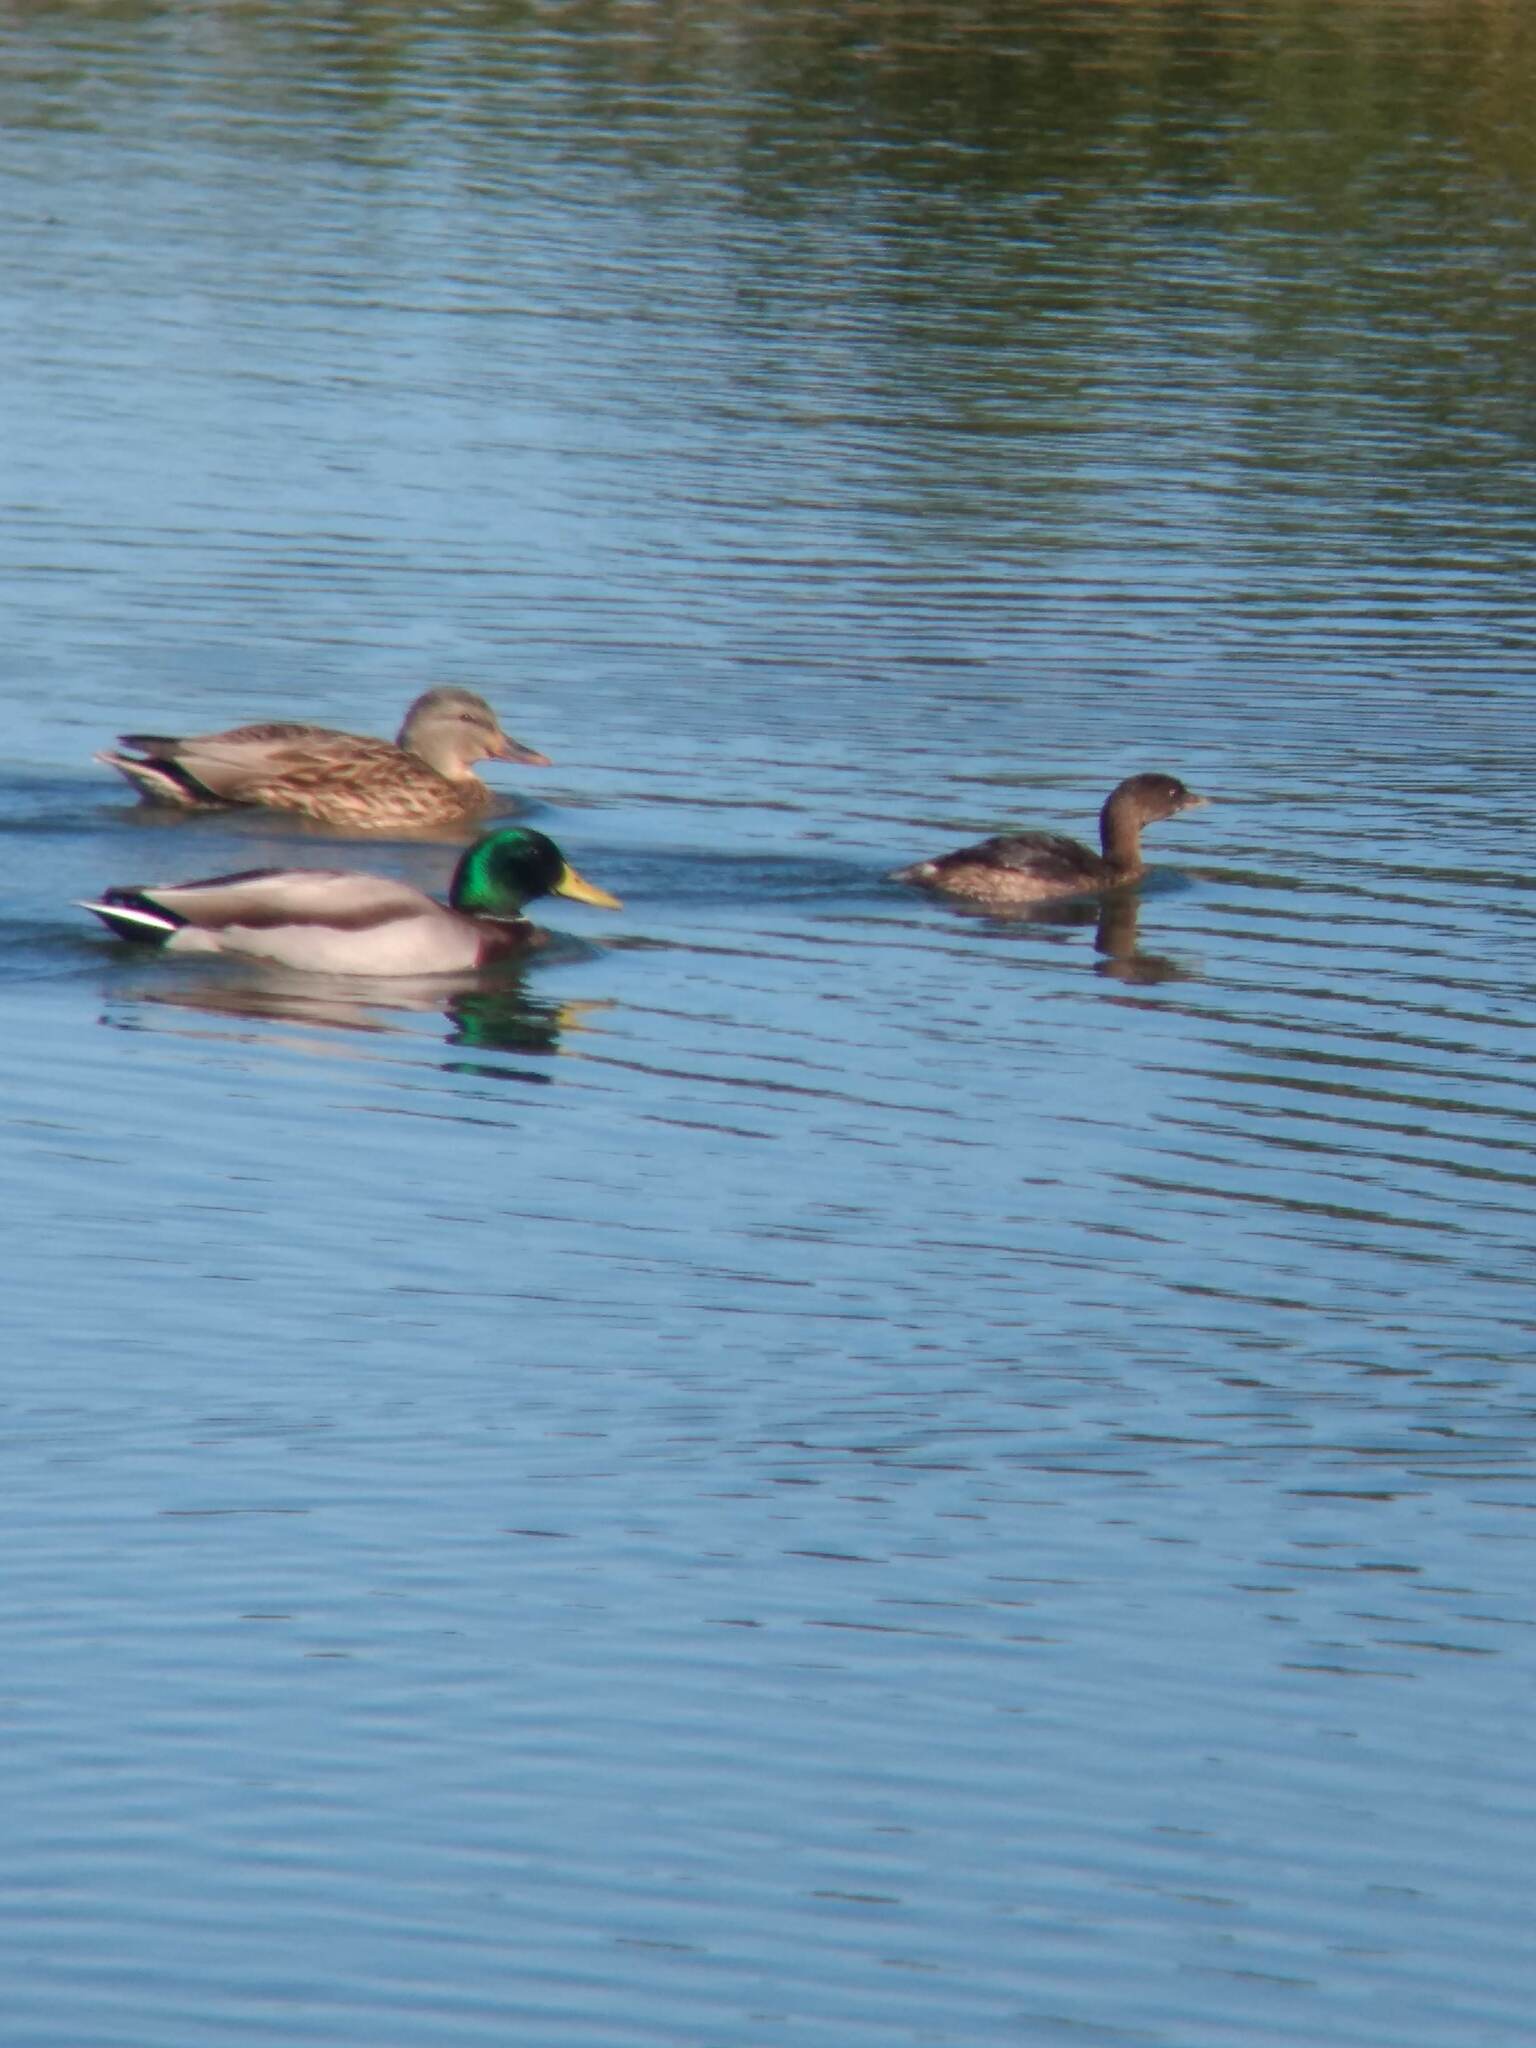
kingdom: Animalia
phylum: Chordata
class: Aves
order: Anseriformes
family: Anatidae
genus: Anas
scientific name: Anas platyrhynchos
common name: Mallard
